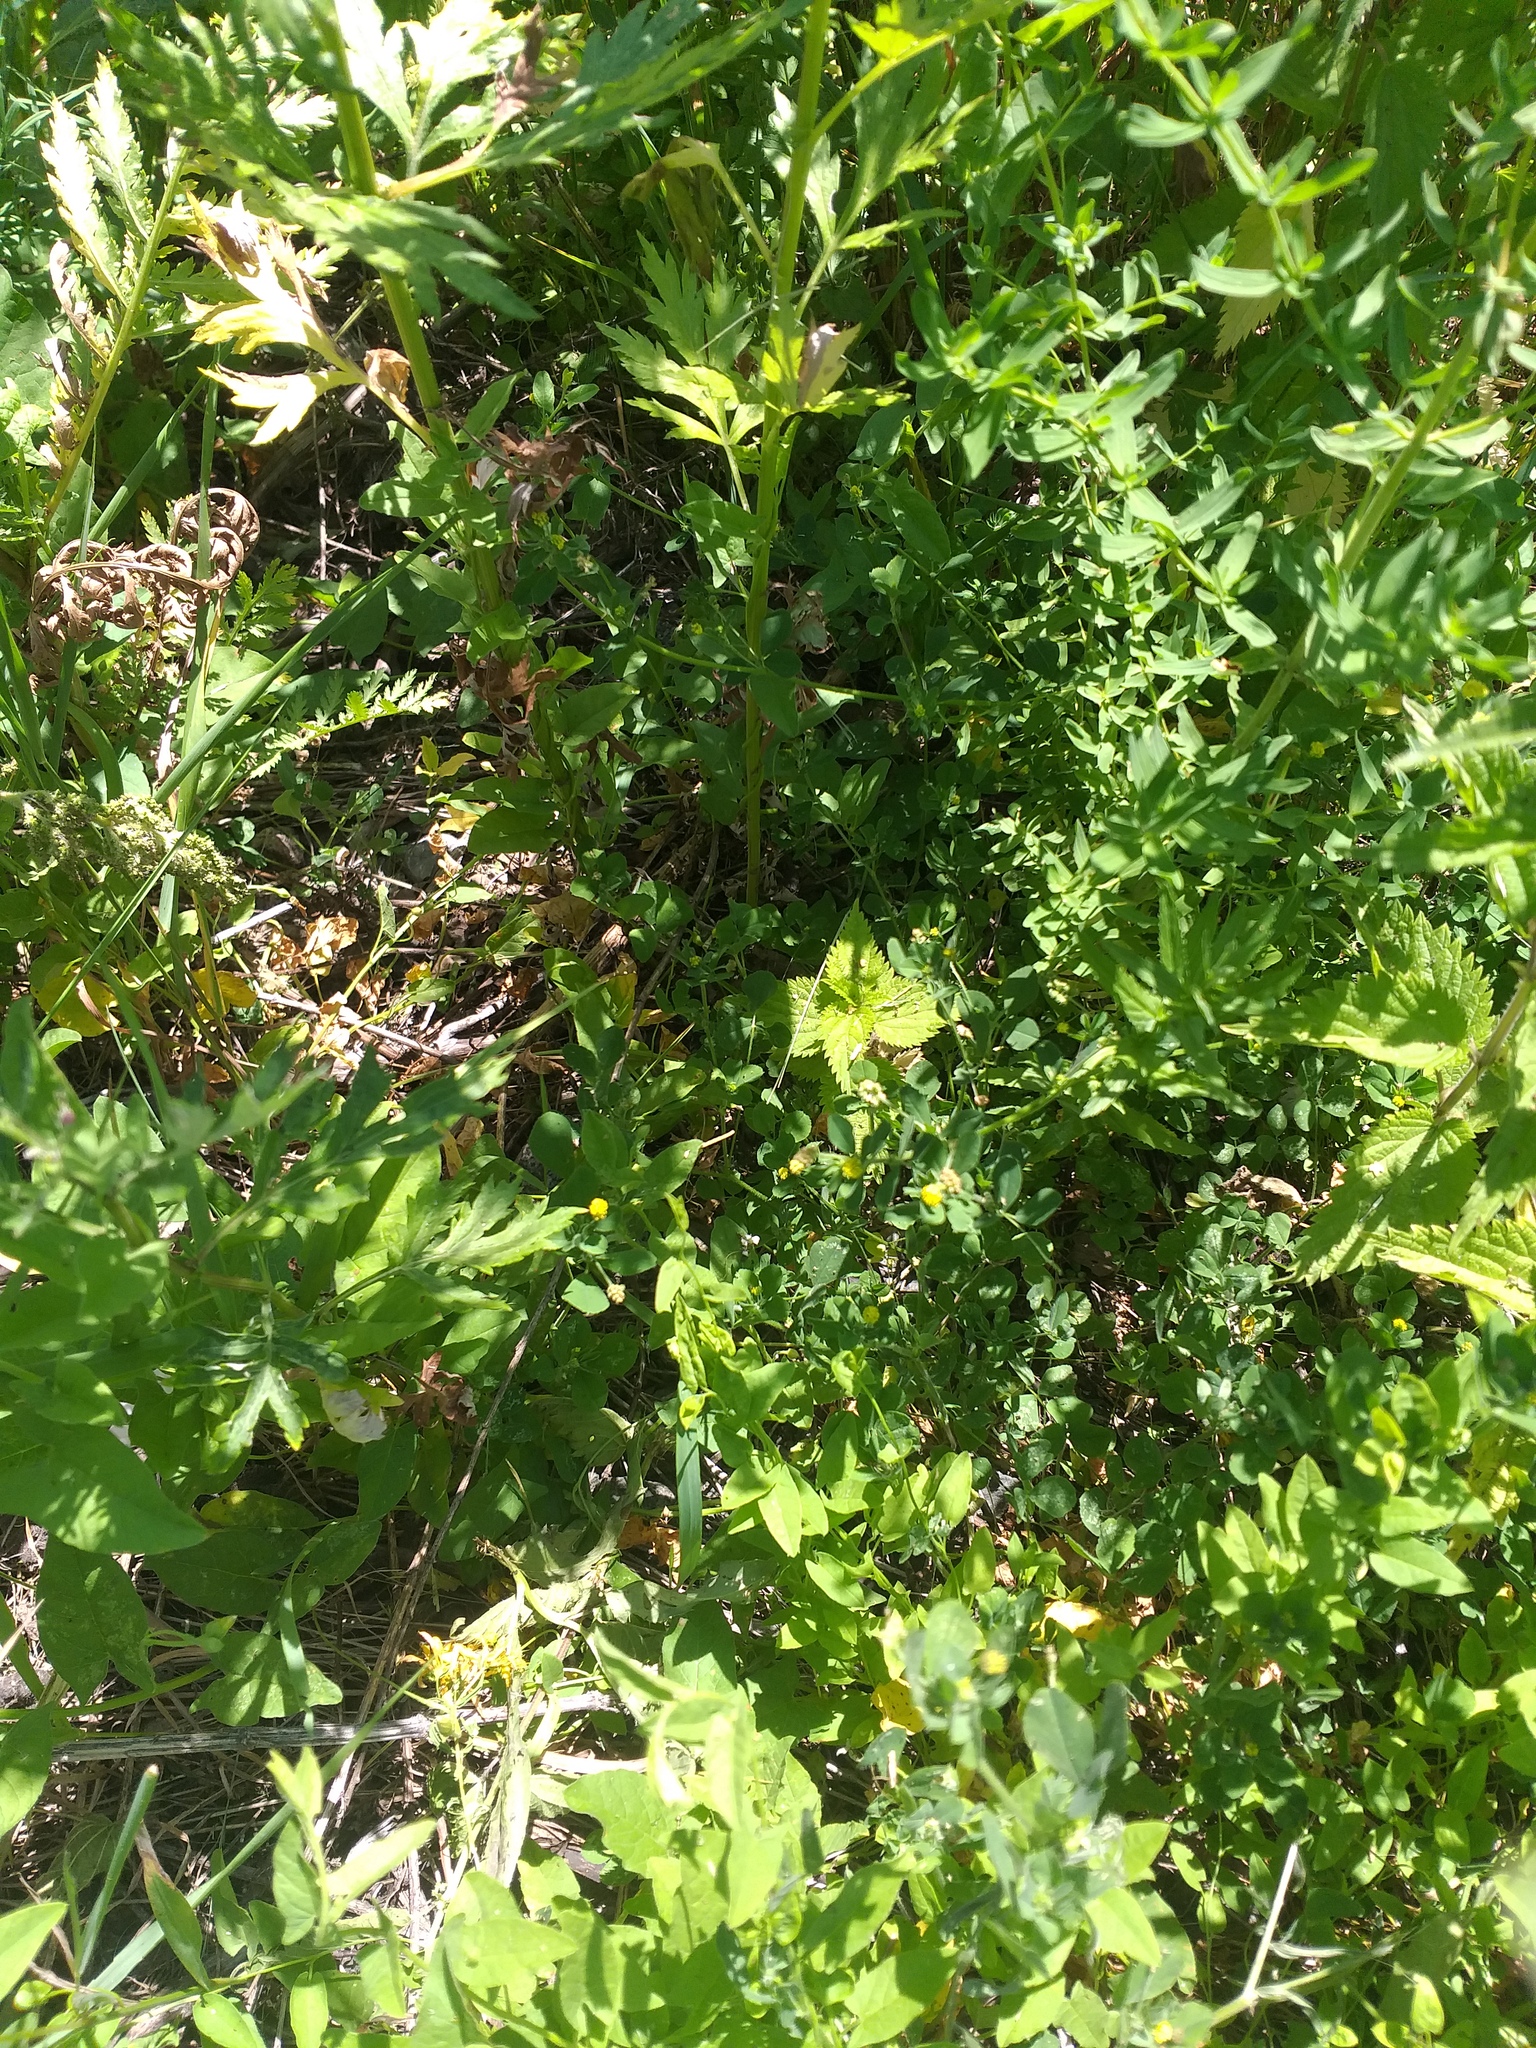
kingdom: Plantae
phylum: Tracheophyta
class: Magnoliopsida
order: Fabales
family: Fabaceae
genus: Medicago
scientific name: Medicago lupulina
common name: Black medick
